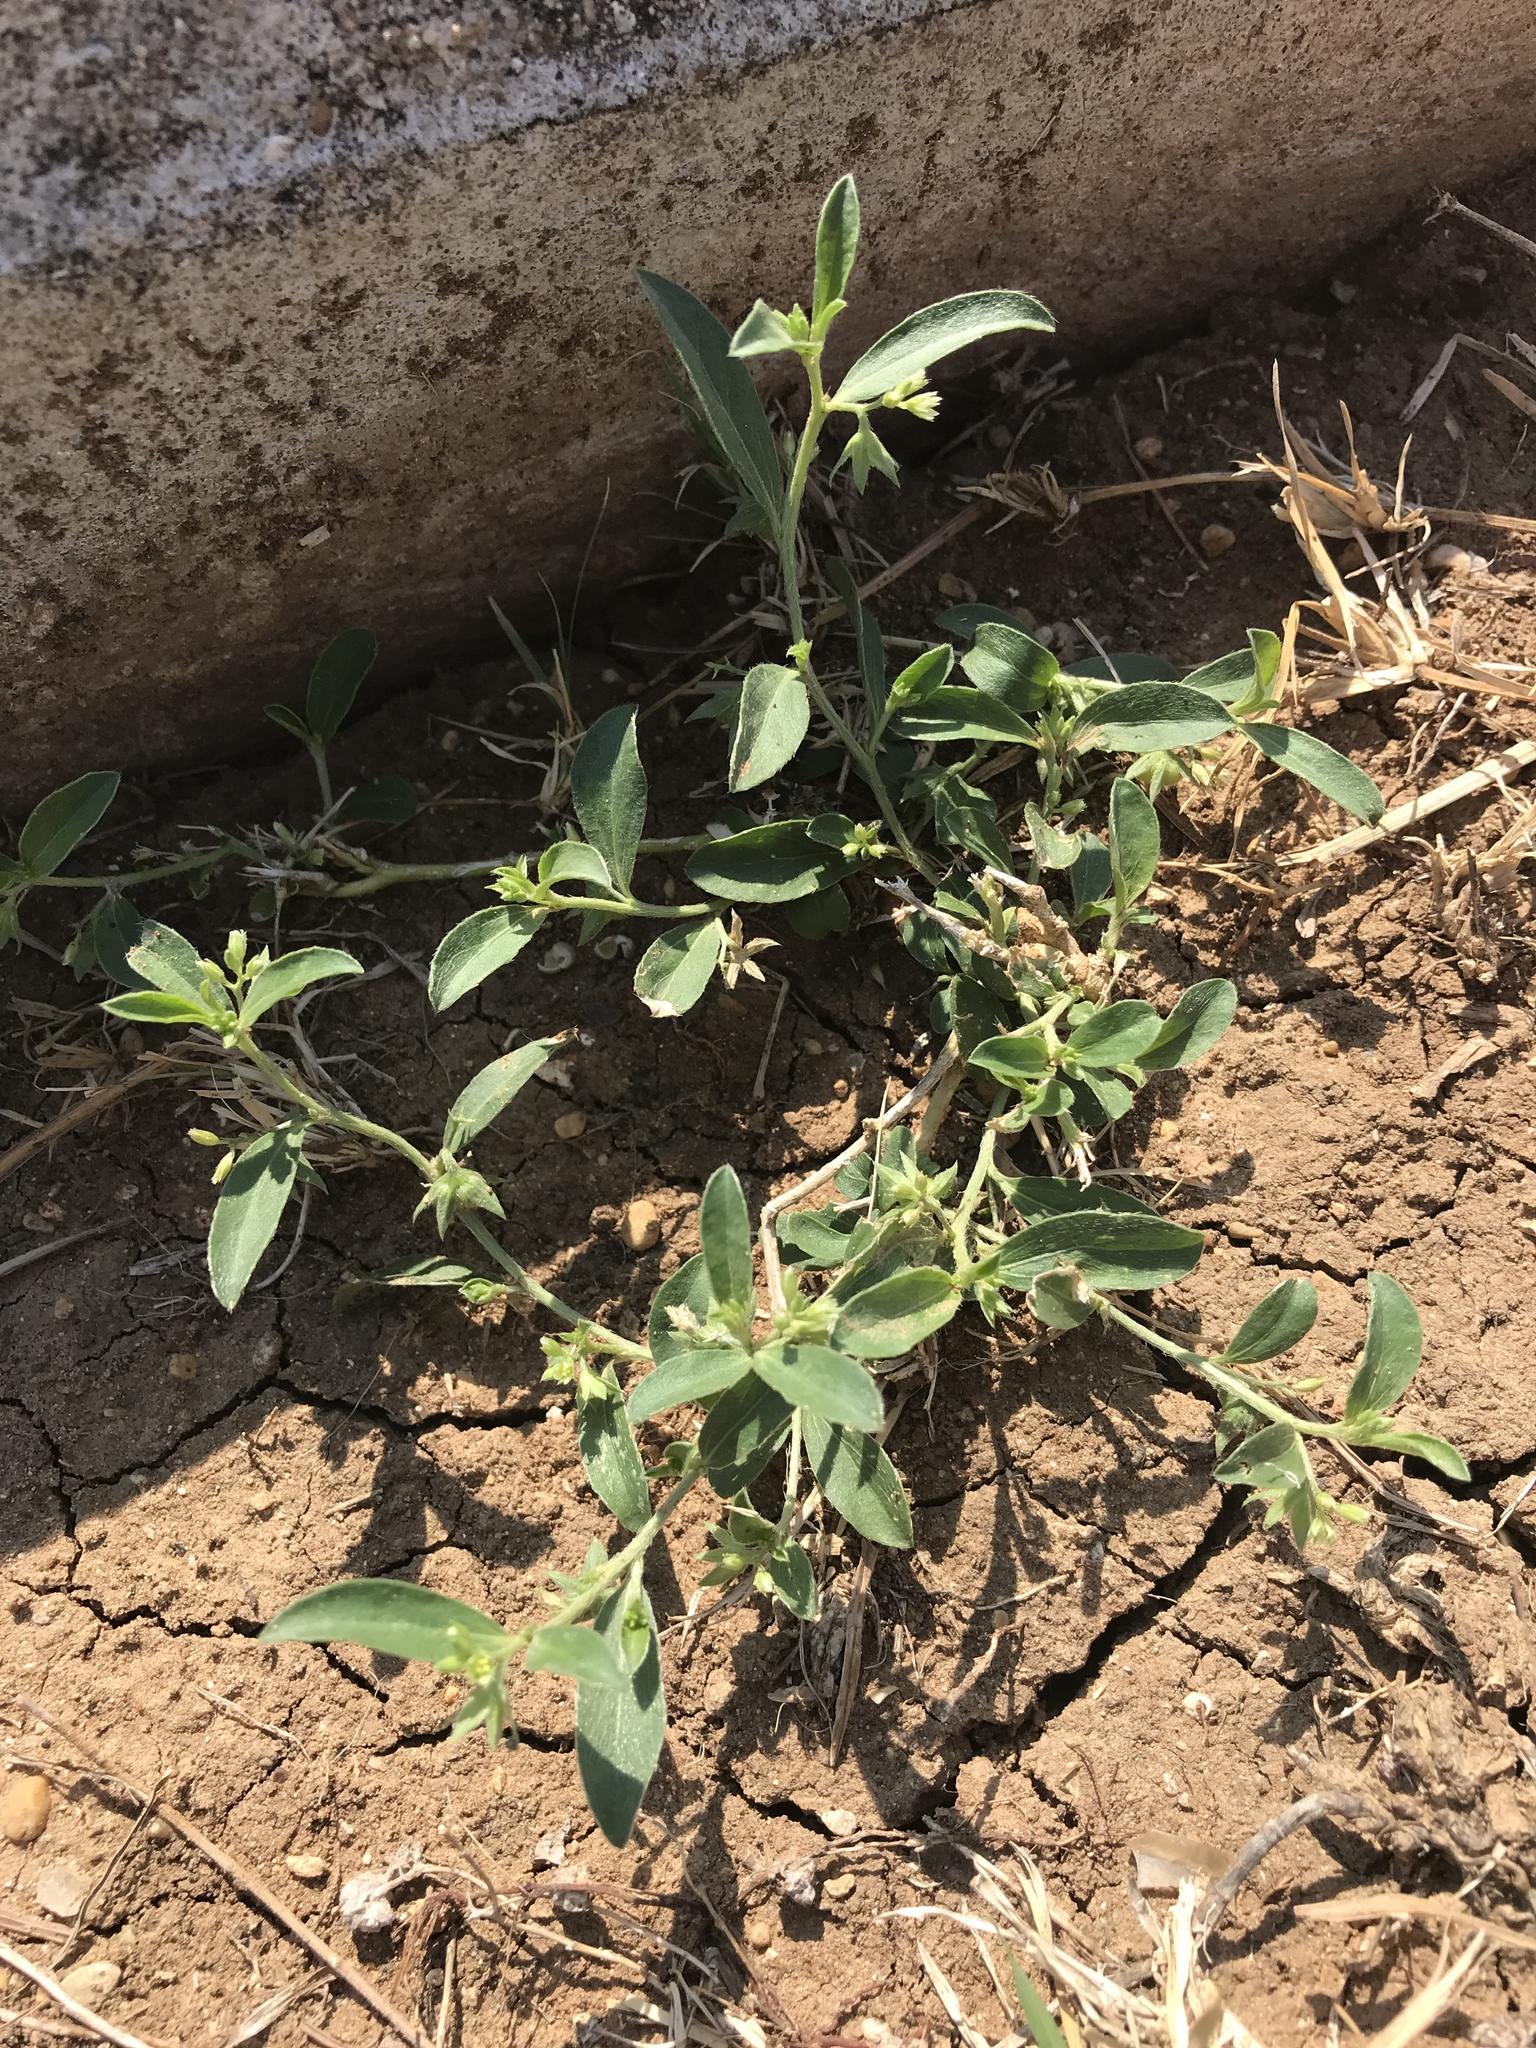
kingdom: Plantae
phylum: Tracheophyta
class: Magnoliopsida
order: Malpighiales
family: Euphorbiaceae
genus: Ditaxis
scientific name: Ditaxis humilis
